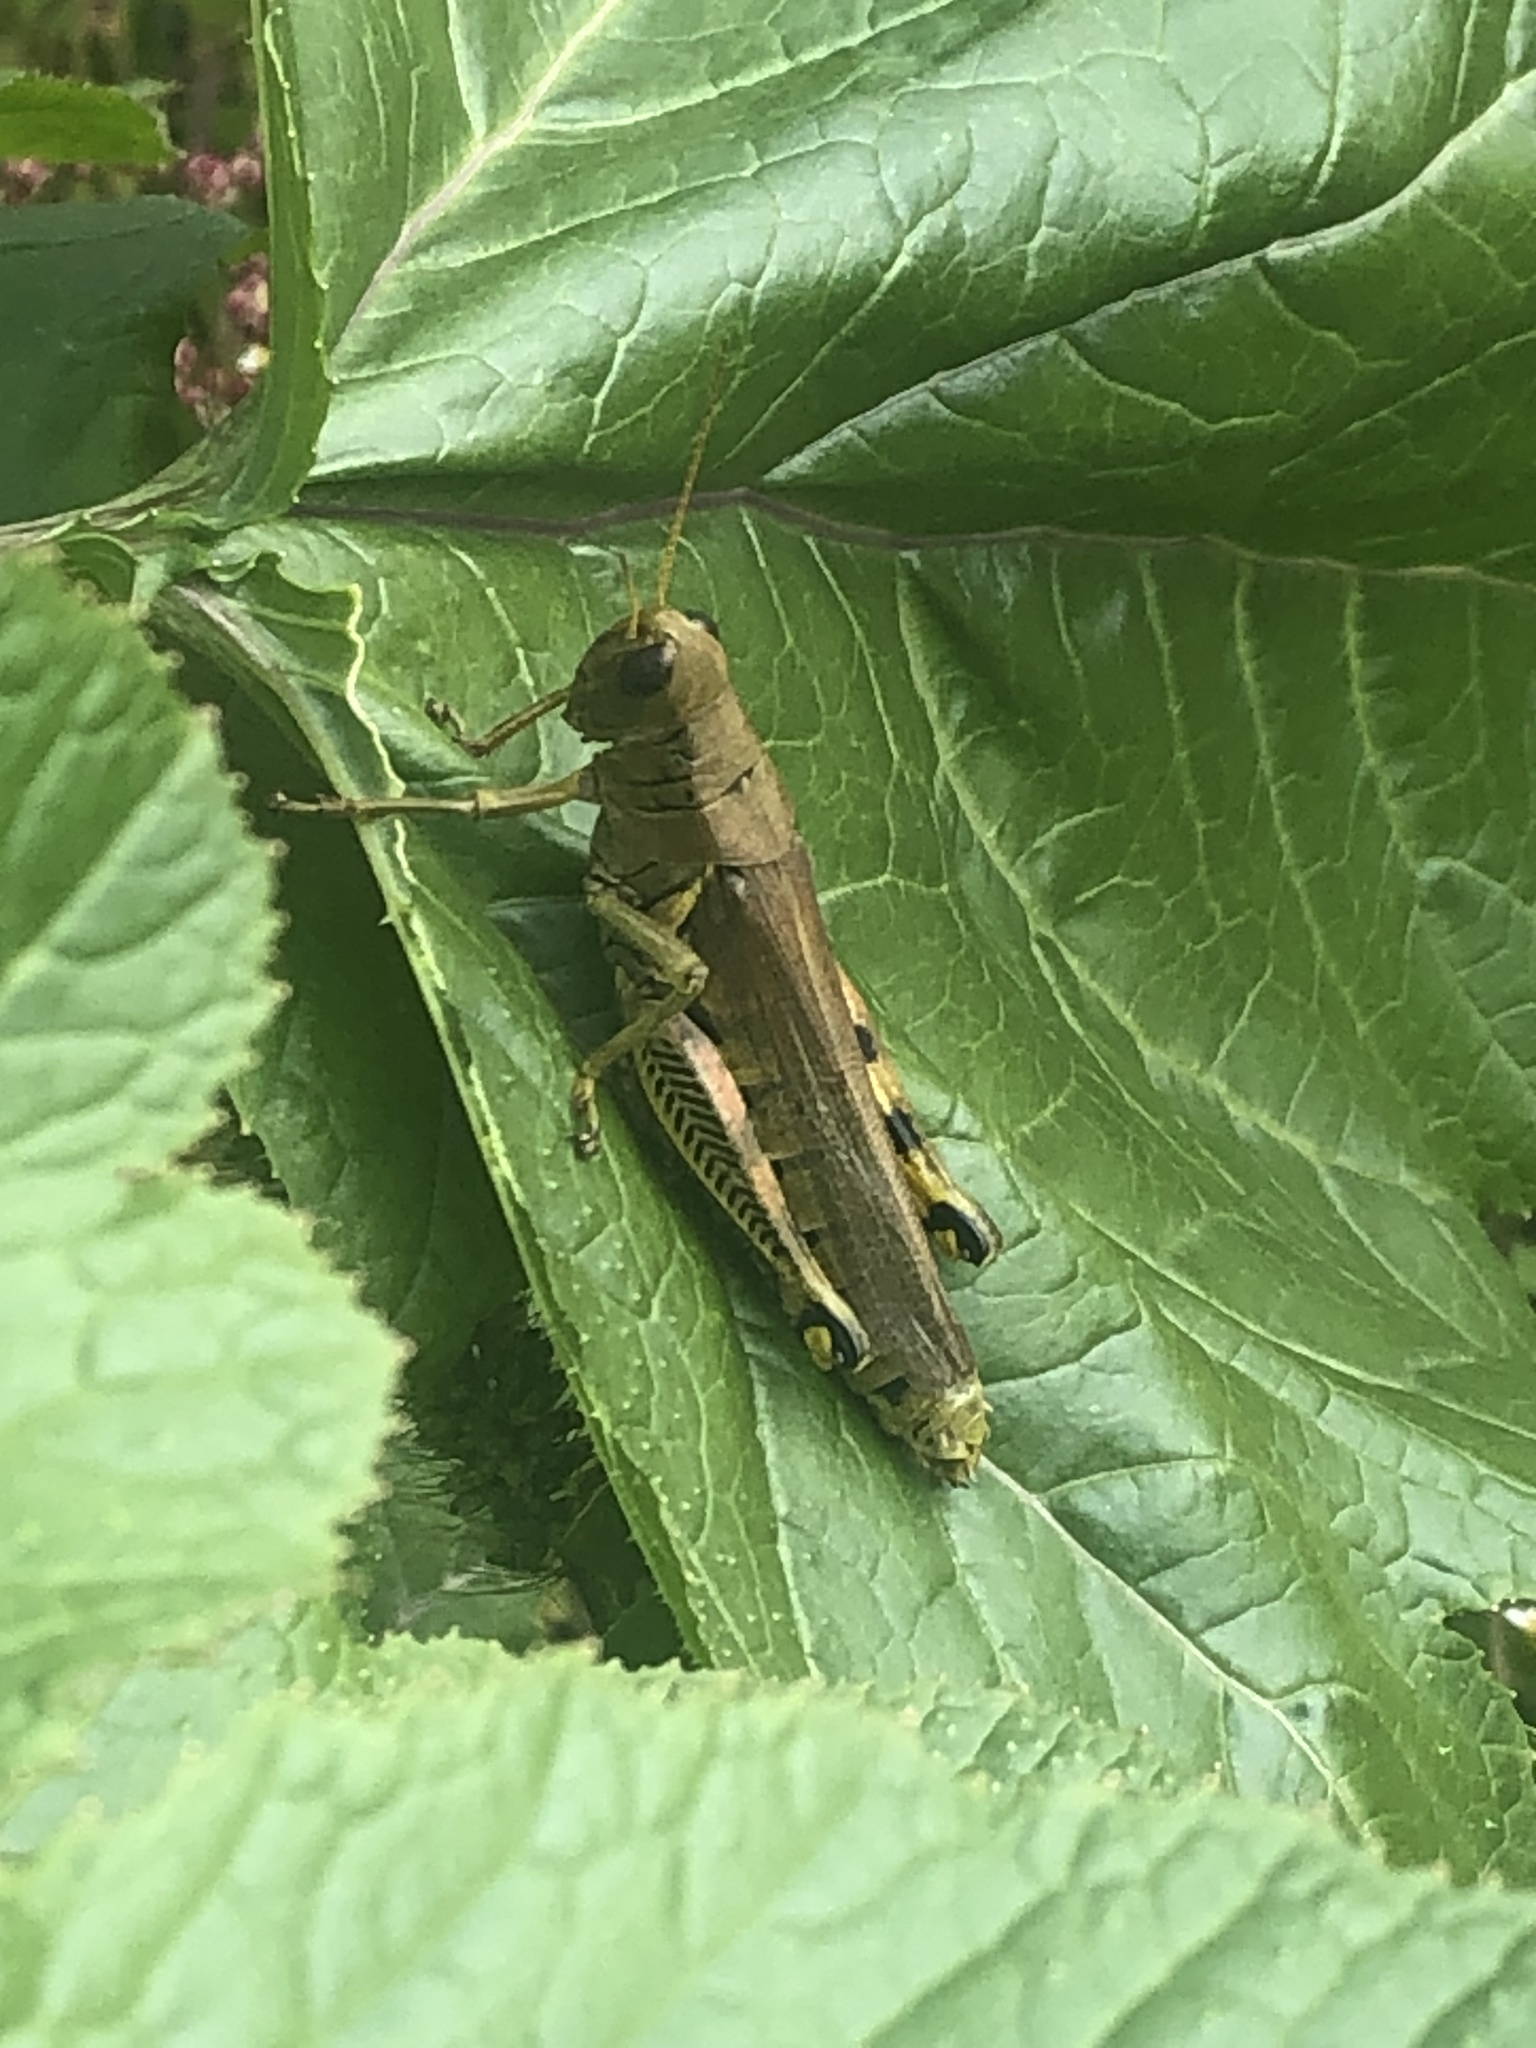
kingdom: Animalia
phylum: Arthropoda
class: Insecta
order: Orthoptera
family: Acrididae
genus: Melanoplus
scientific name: Melanoplus differentialis
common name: Differential grasshopper
